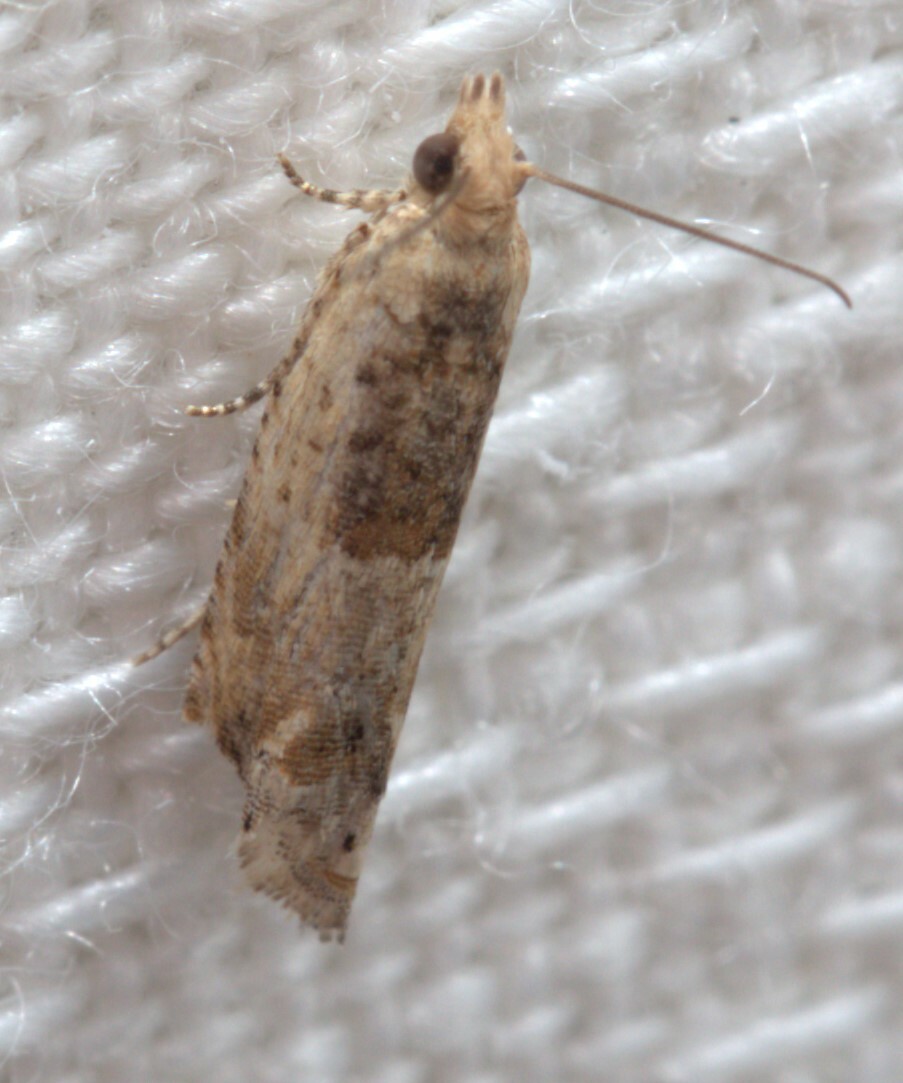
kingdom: Animalia
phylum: Arthropoda
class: Insecta
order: Lepidoptera
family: Tortricidae
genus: Spilonota
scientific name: Spilonota constrictana
